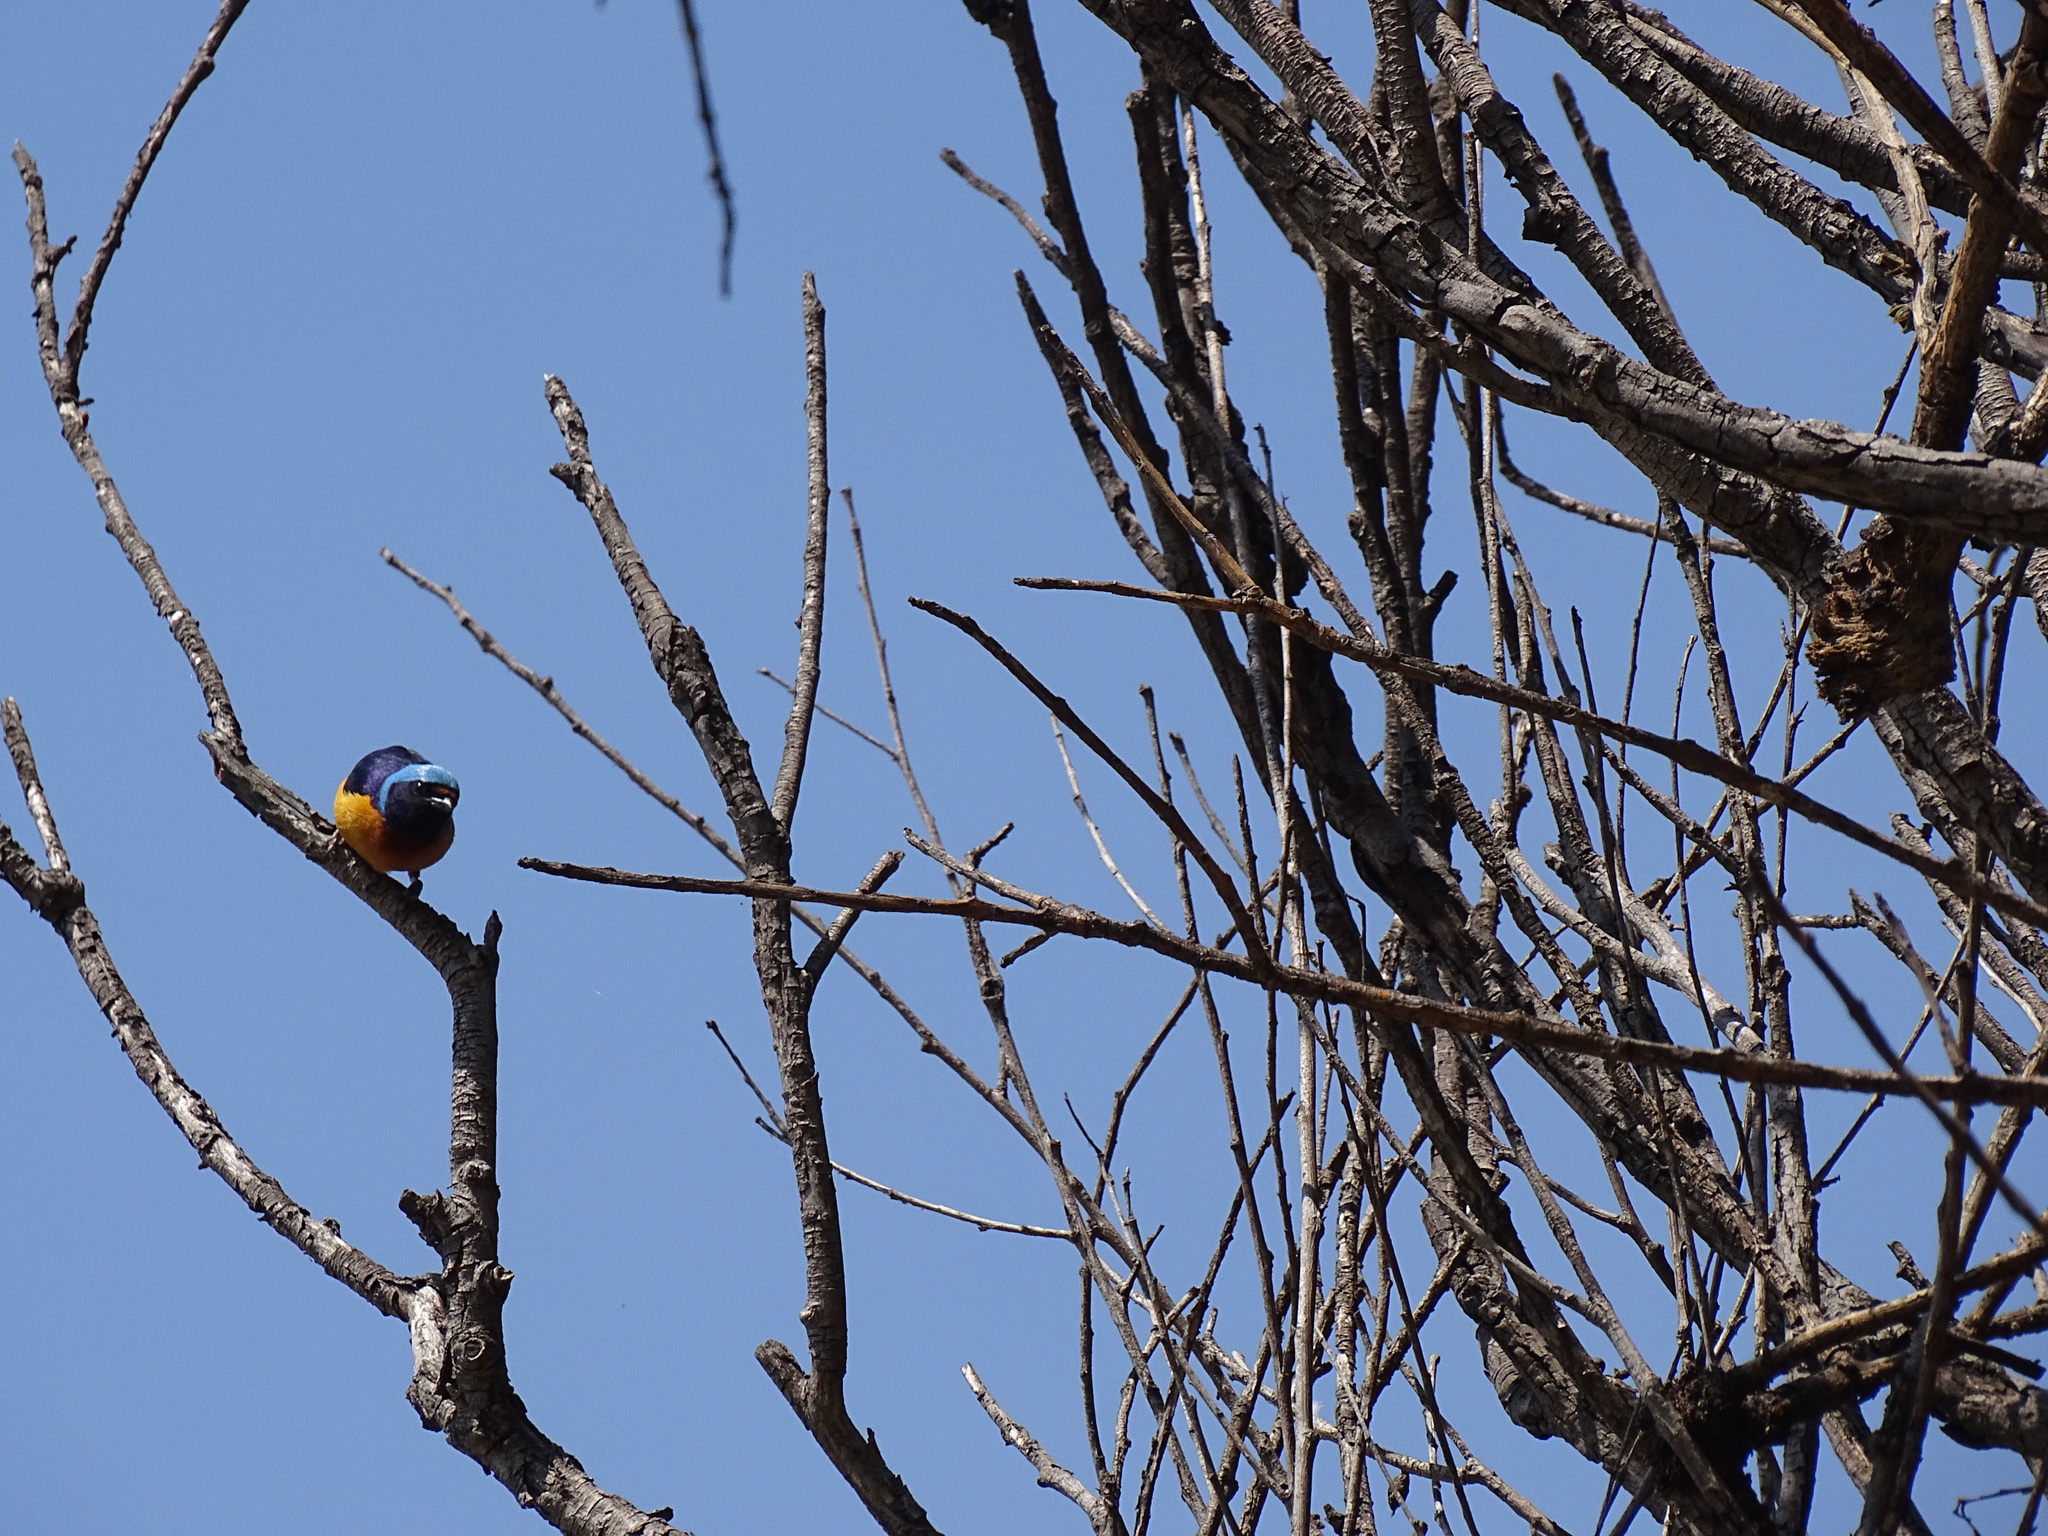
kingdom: Animalia
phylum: Chordata
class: Aves
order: Passeriformes
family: Fringillidae
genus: Euphonia
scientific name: Euphonia elegantissima
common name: Elegant euphonia
